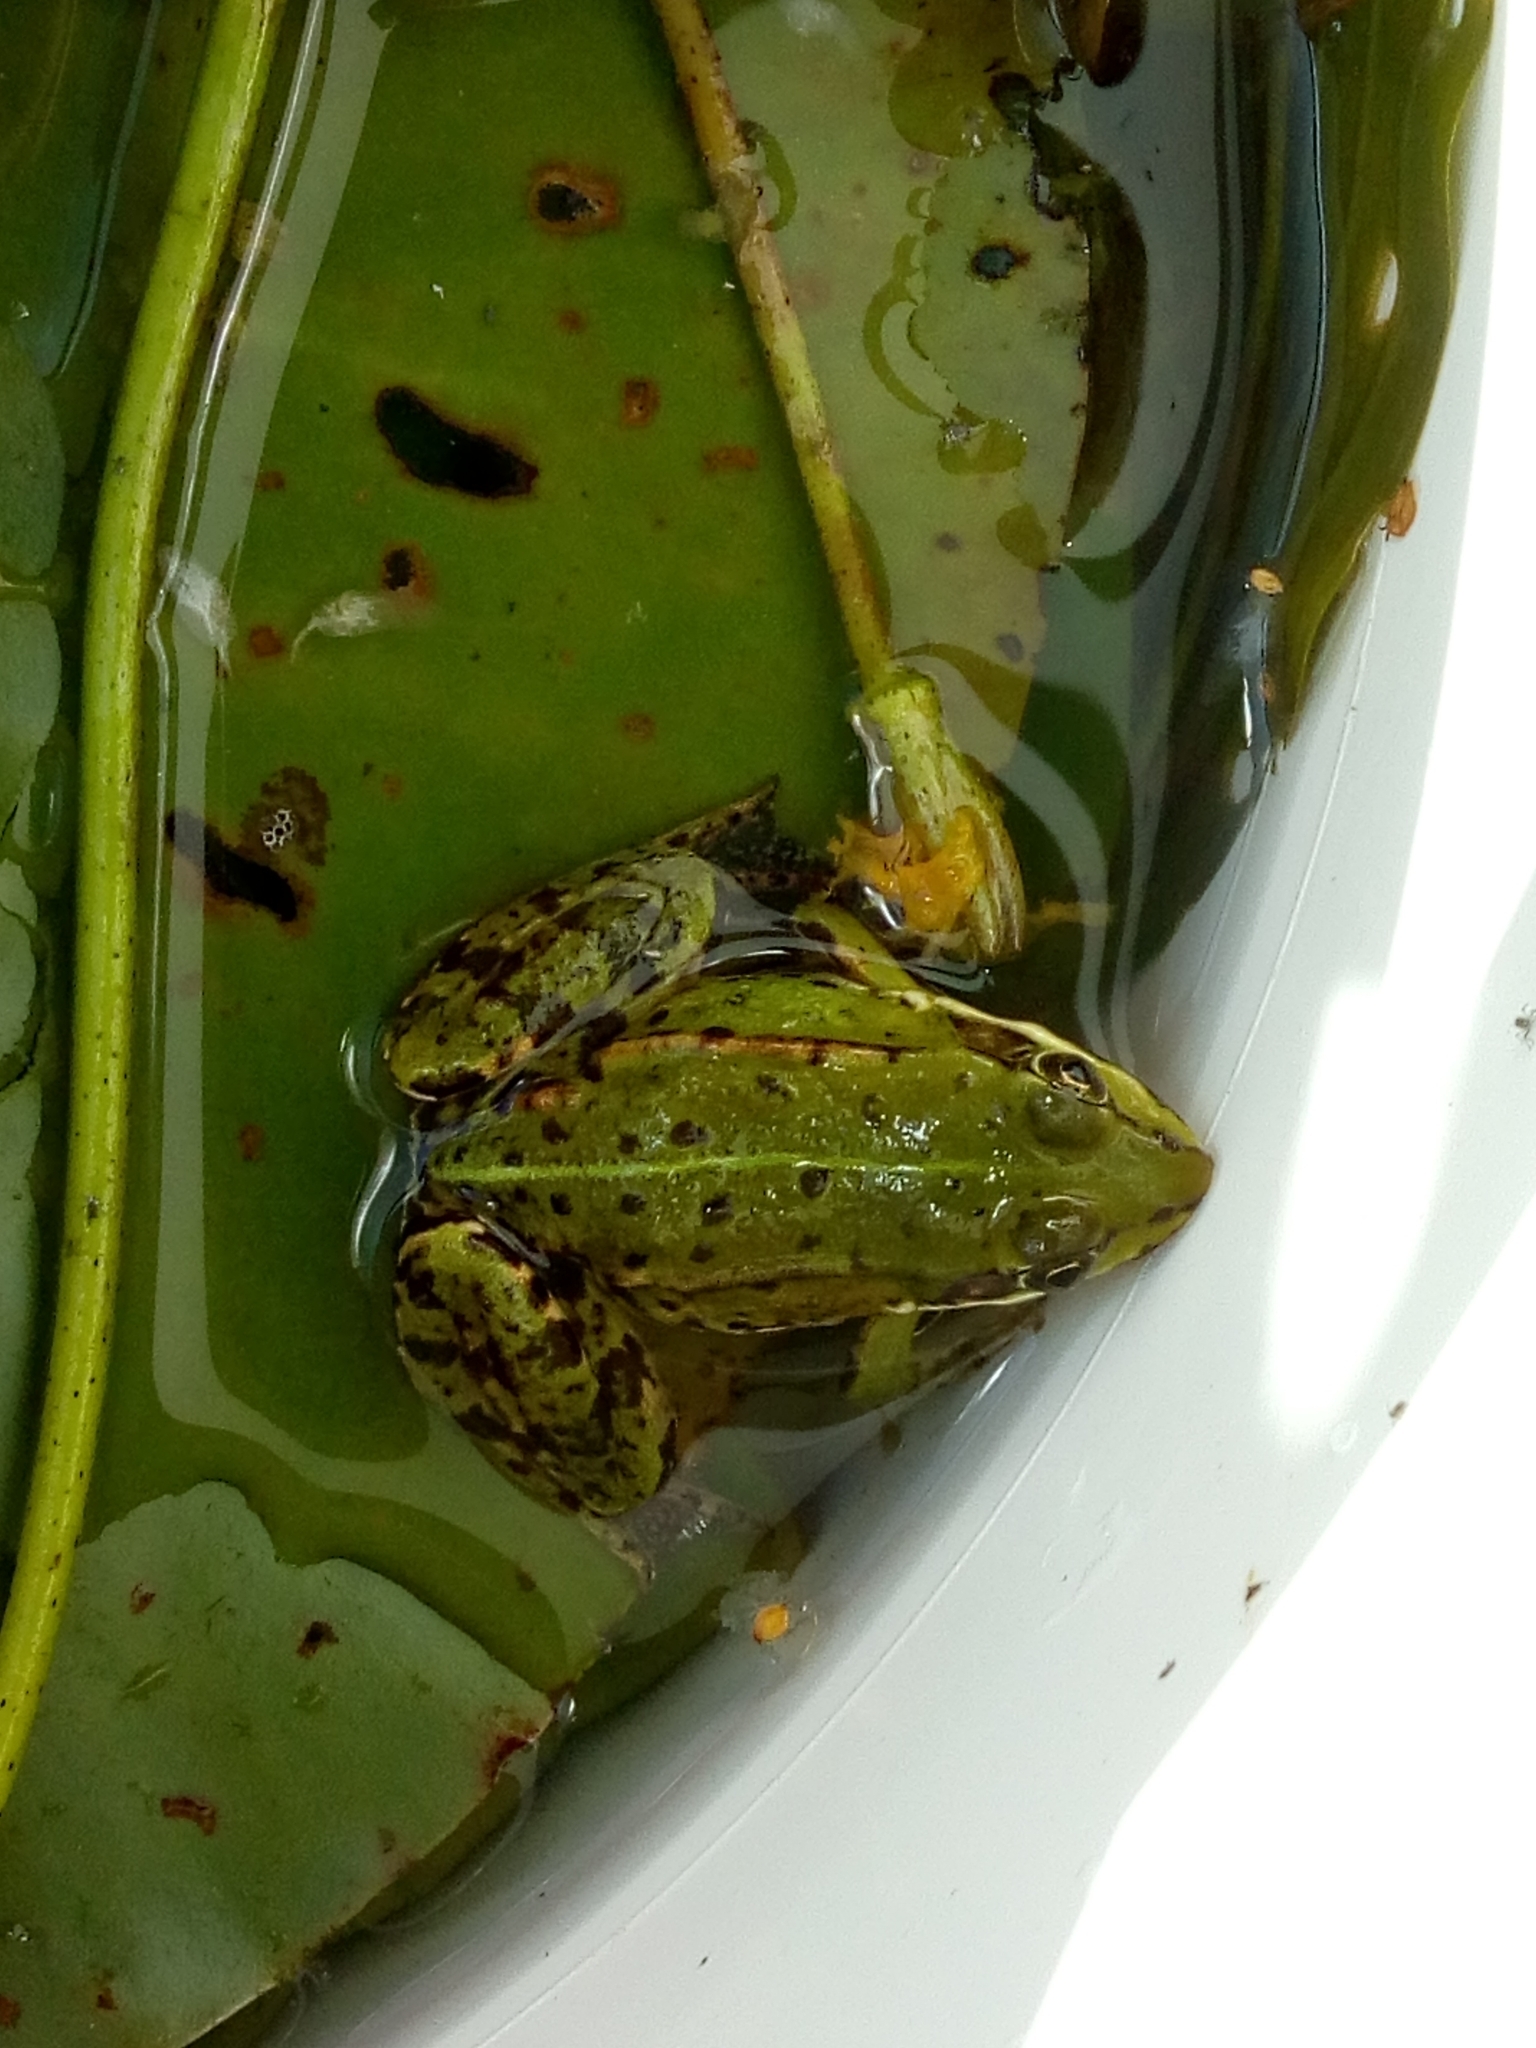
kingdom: Animalia
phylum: Chordata
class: Amphibia
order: Anura
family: Ranidae
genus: Pelophylax
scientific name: Pelophylax lessonae
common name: Pool frog
